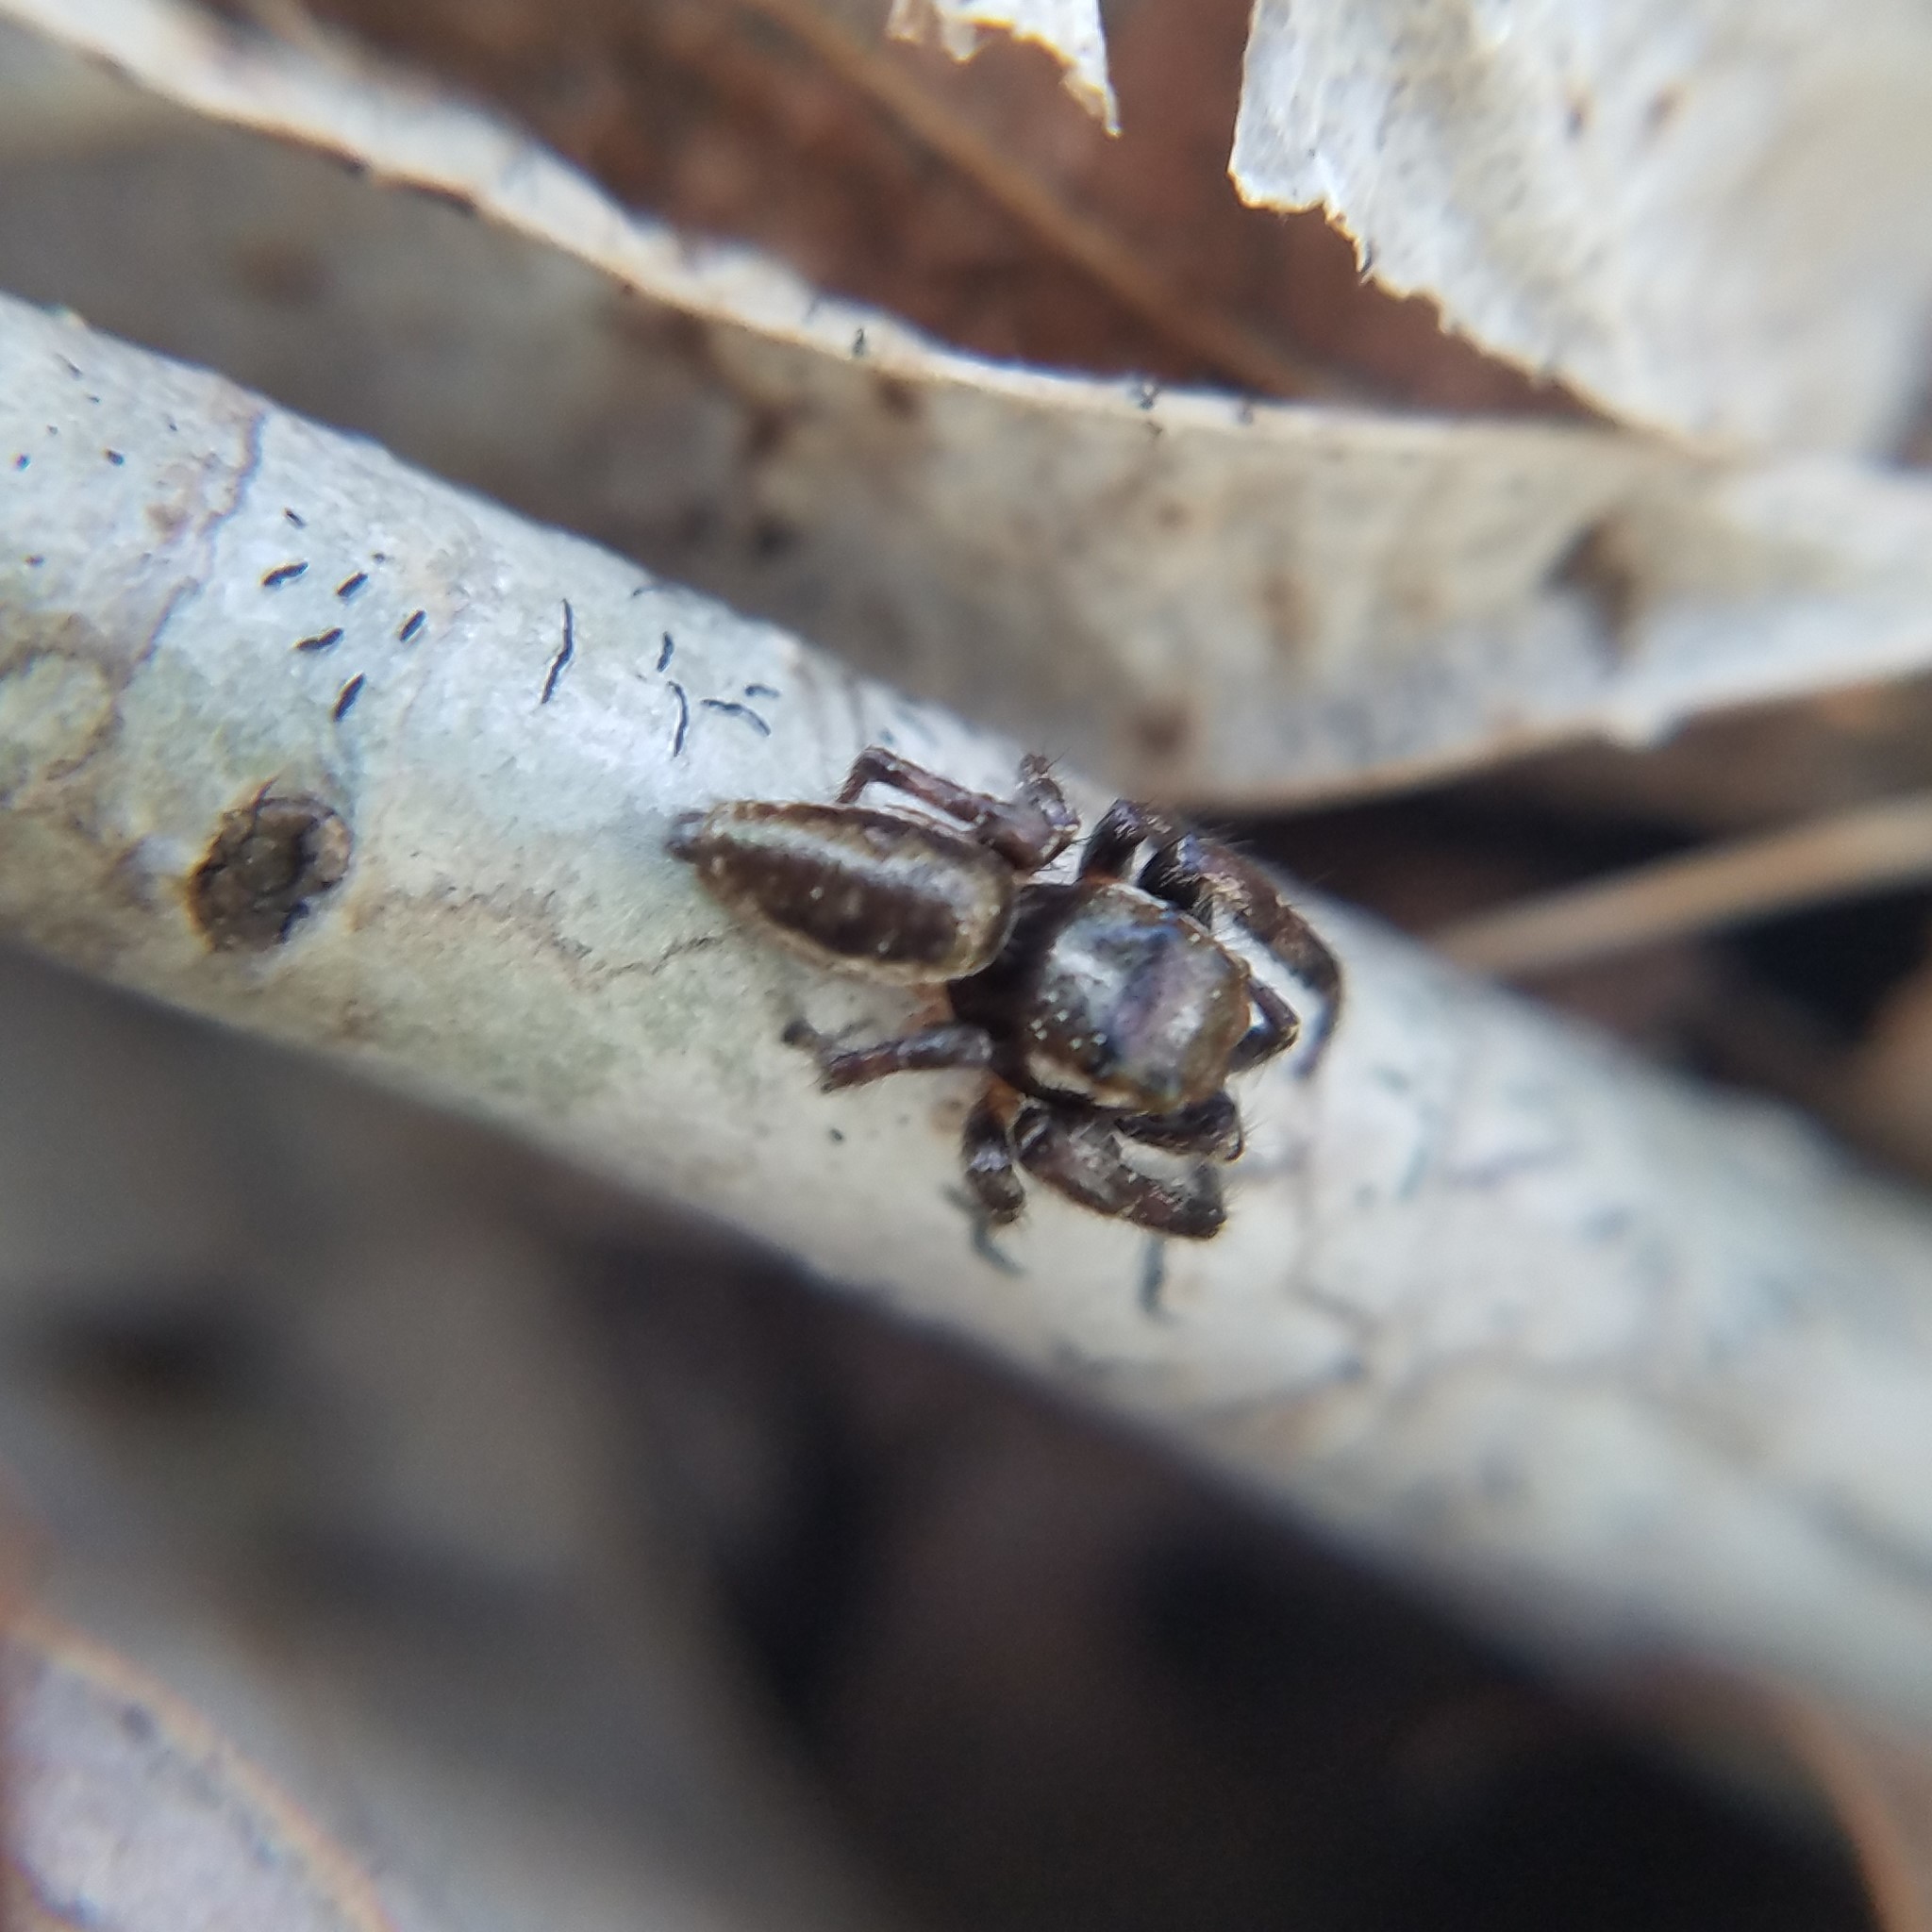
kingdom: Animalia
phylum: Arthropoda
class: Arachnida
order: Araneae
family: Salticidae
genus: Eris
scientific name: Eris militaris
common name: Bronze jumper
